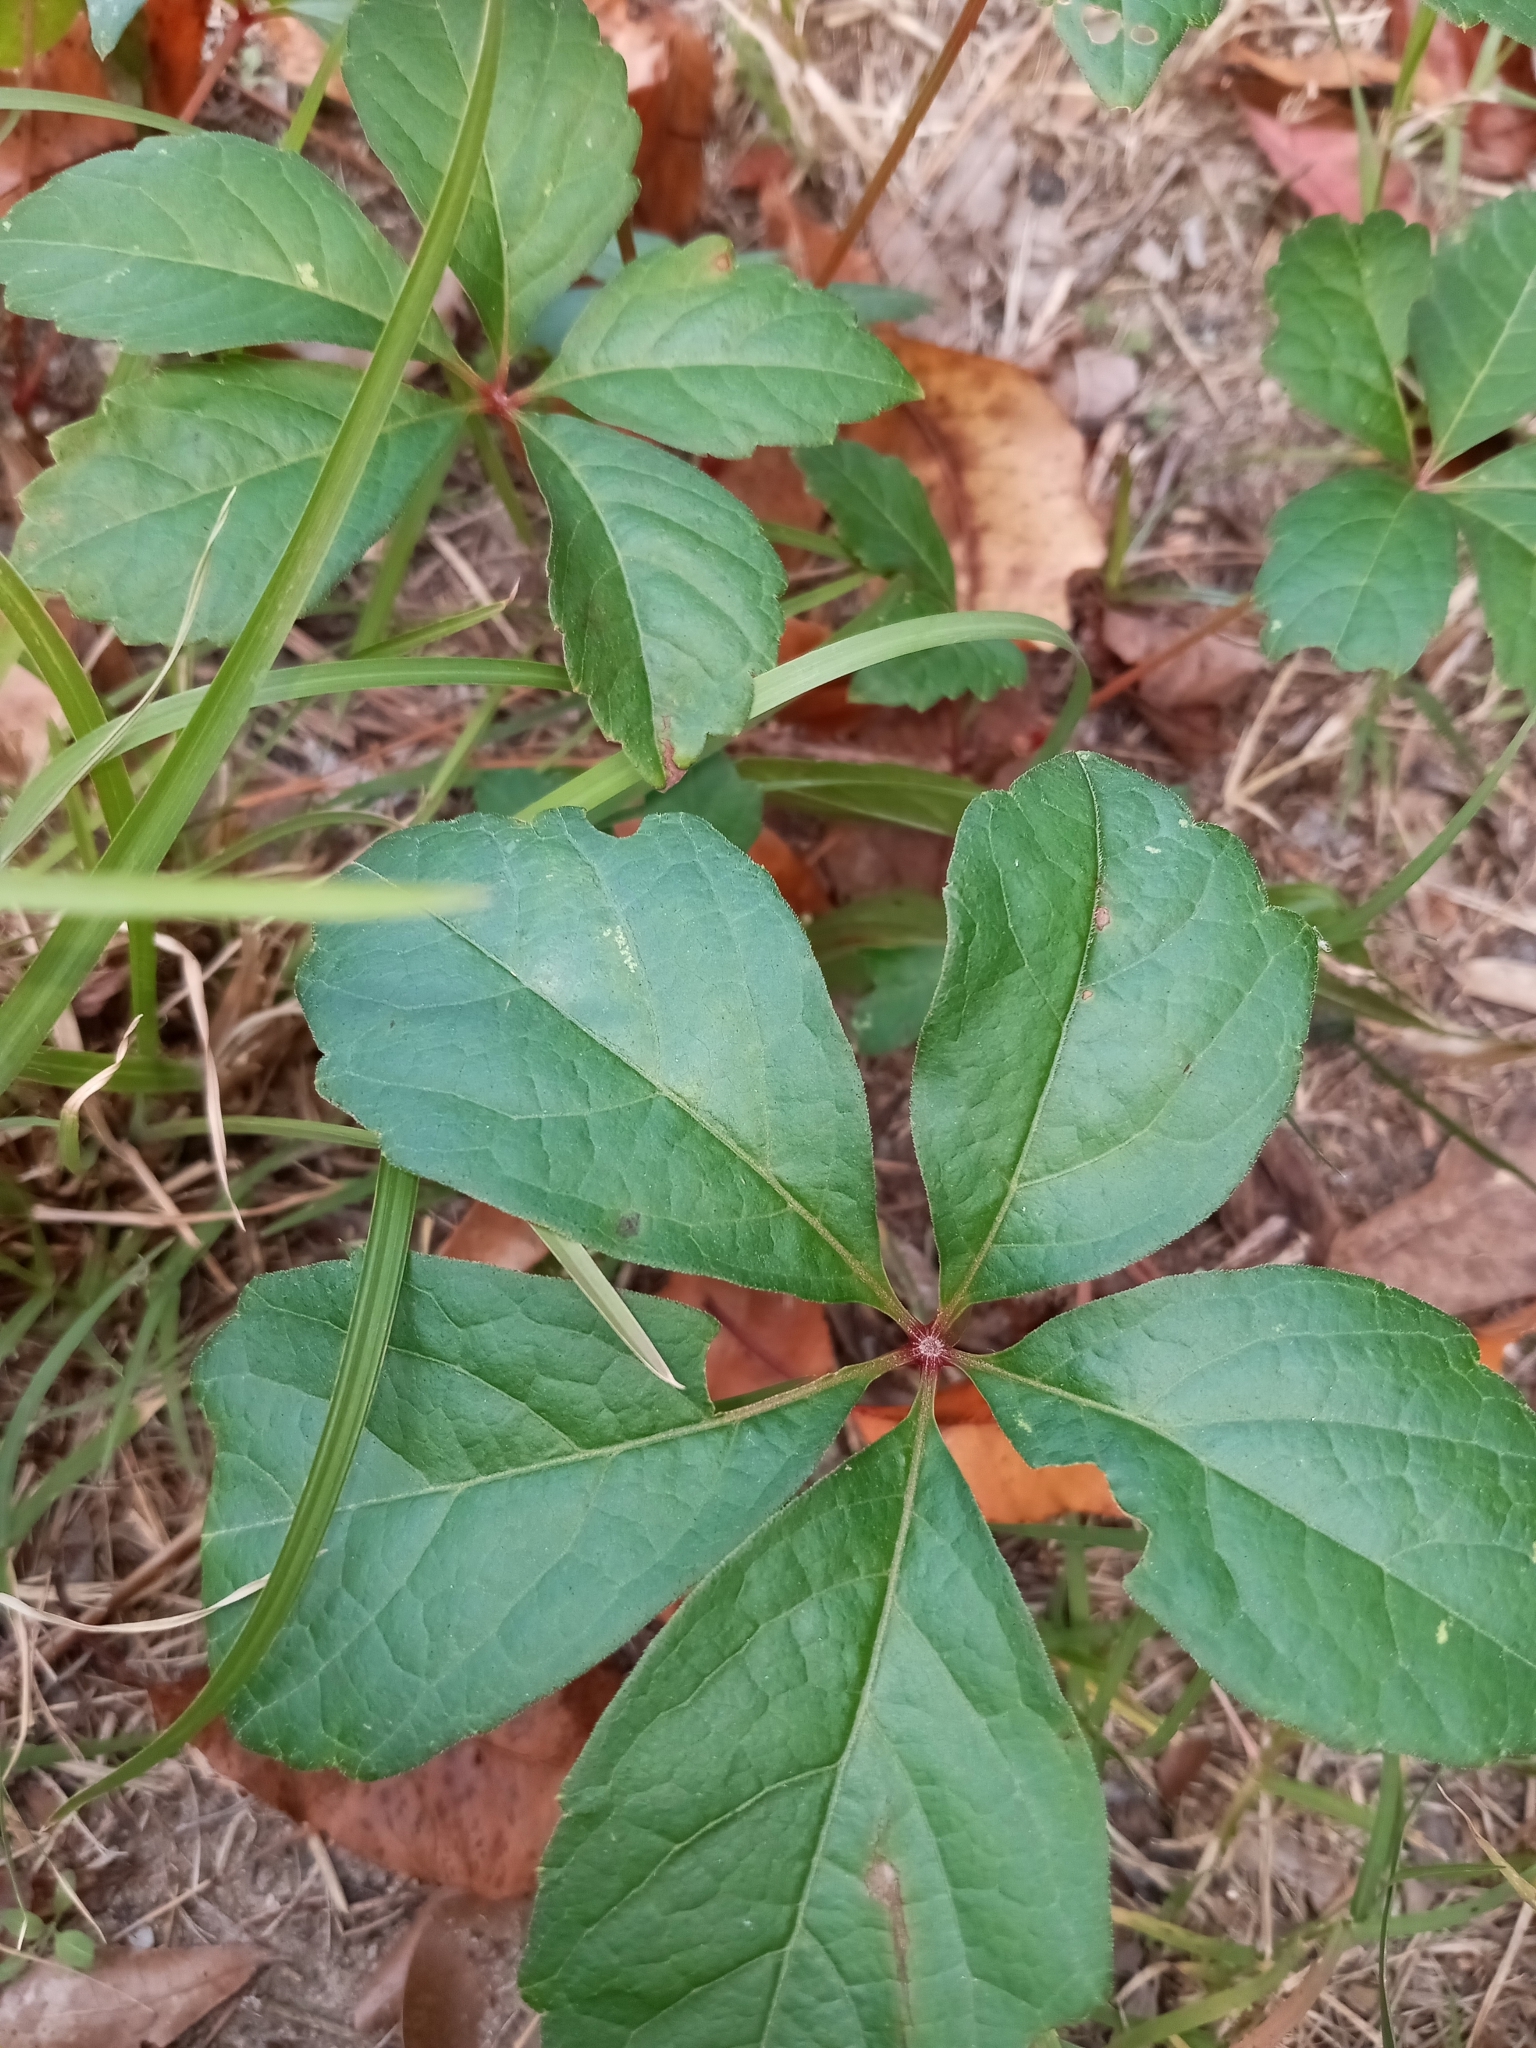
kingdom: Plantae
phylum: Tracheophyta
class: Magnoliopsida
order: Vitales
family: Vitaceae
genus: Parthenocissus
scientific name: Parthenocissus quinquefolia
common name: Virginia-creeper
